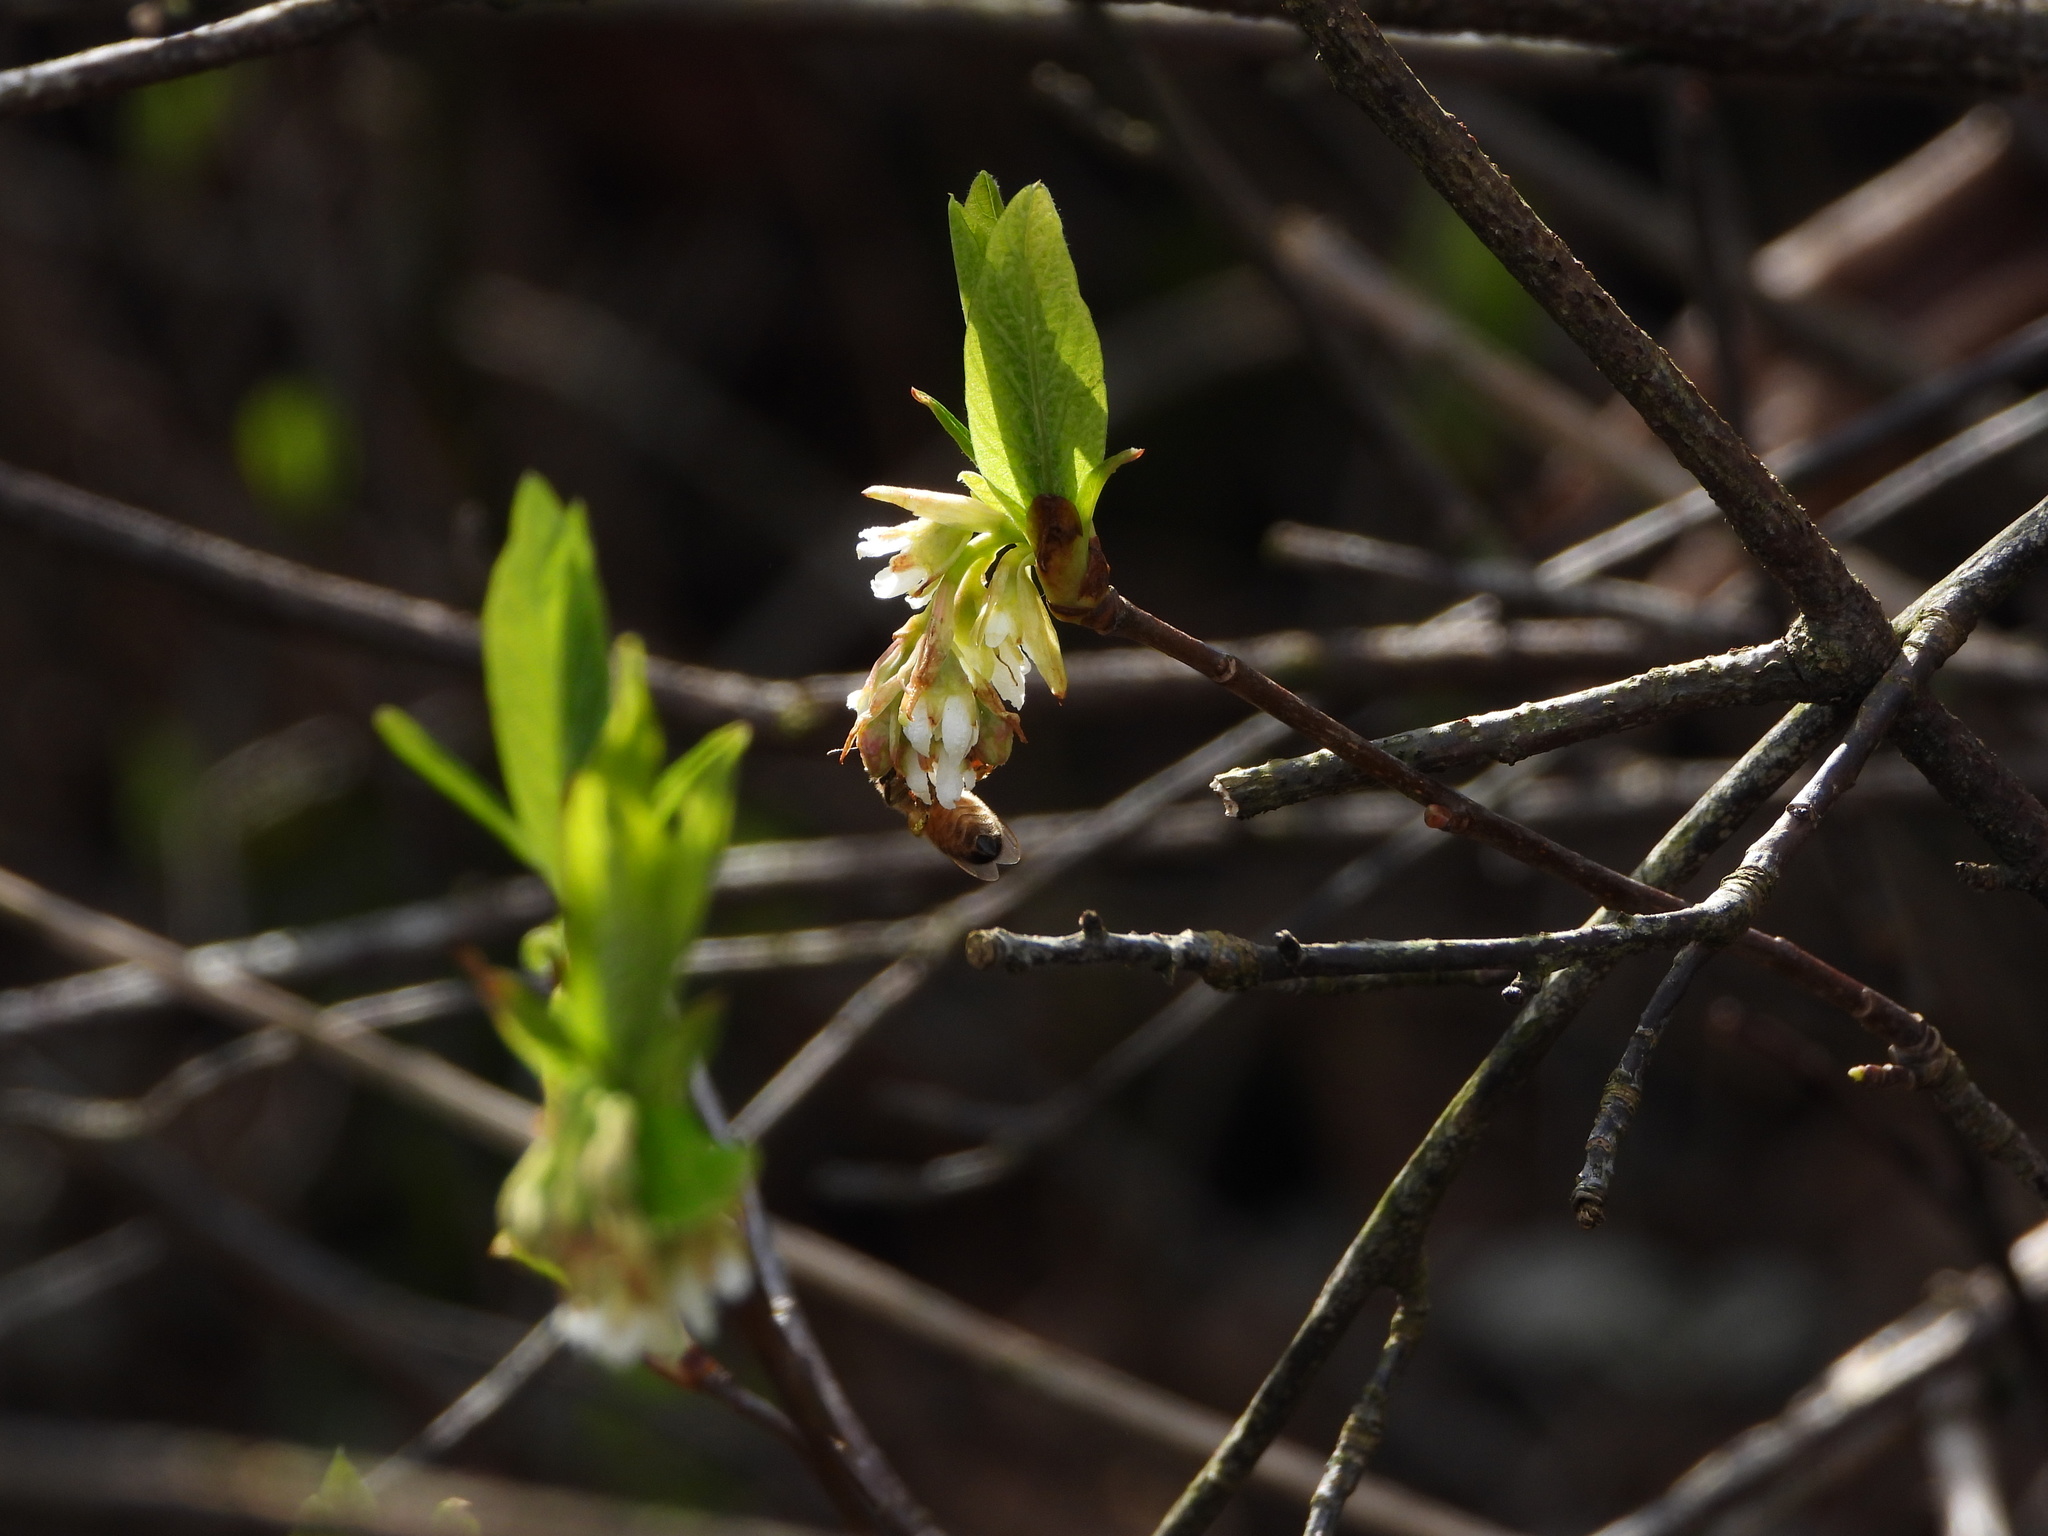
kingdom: Animalia
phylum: Arthropoda
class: Insecta
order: Hymenoptera
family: Apidae
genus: Apis
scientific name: Apis mellifera
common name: Honey bee
